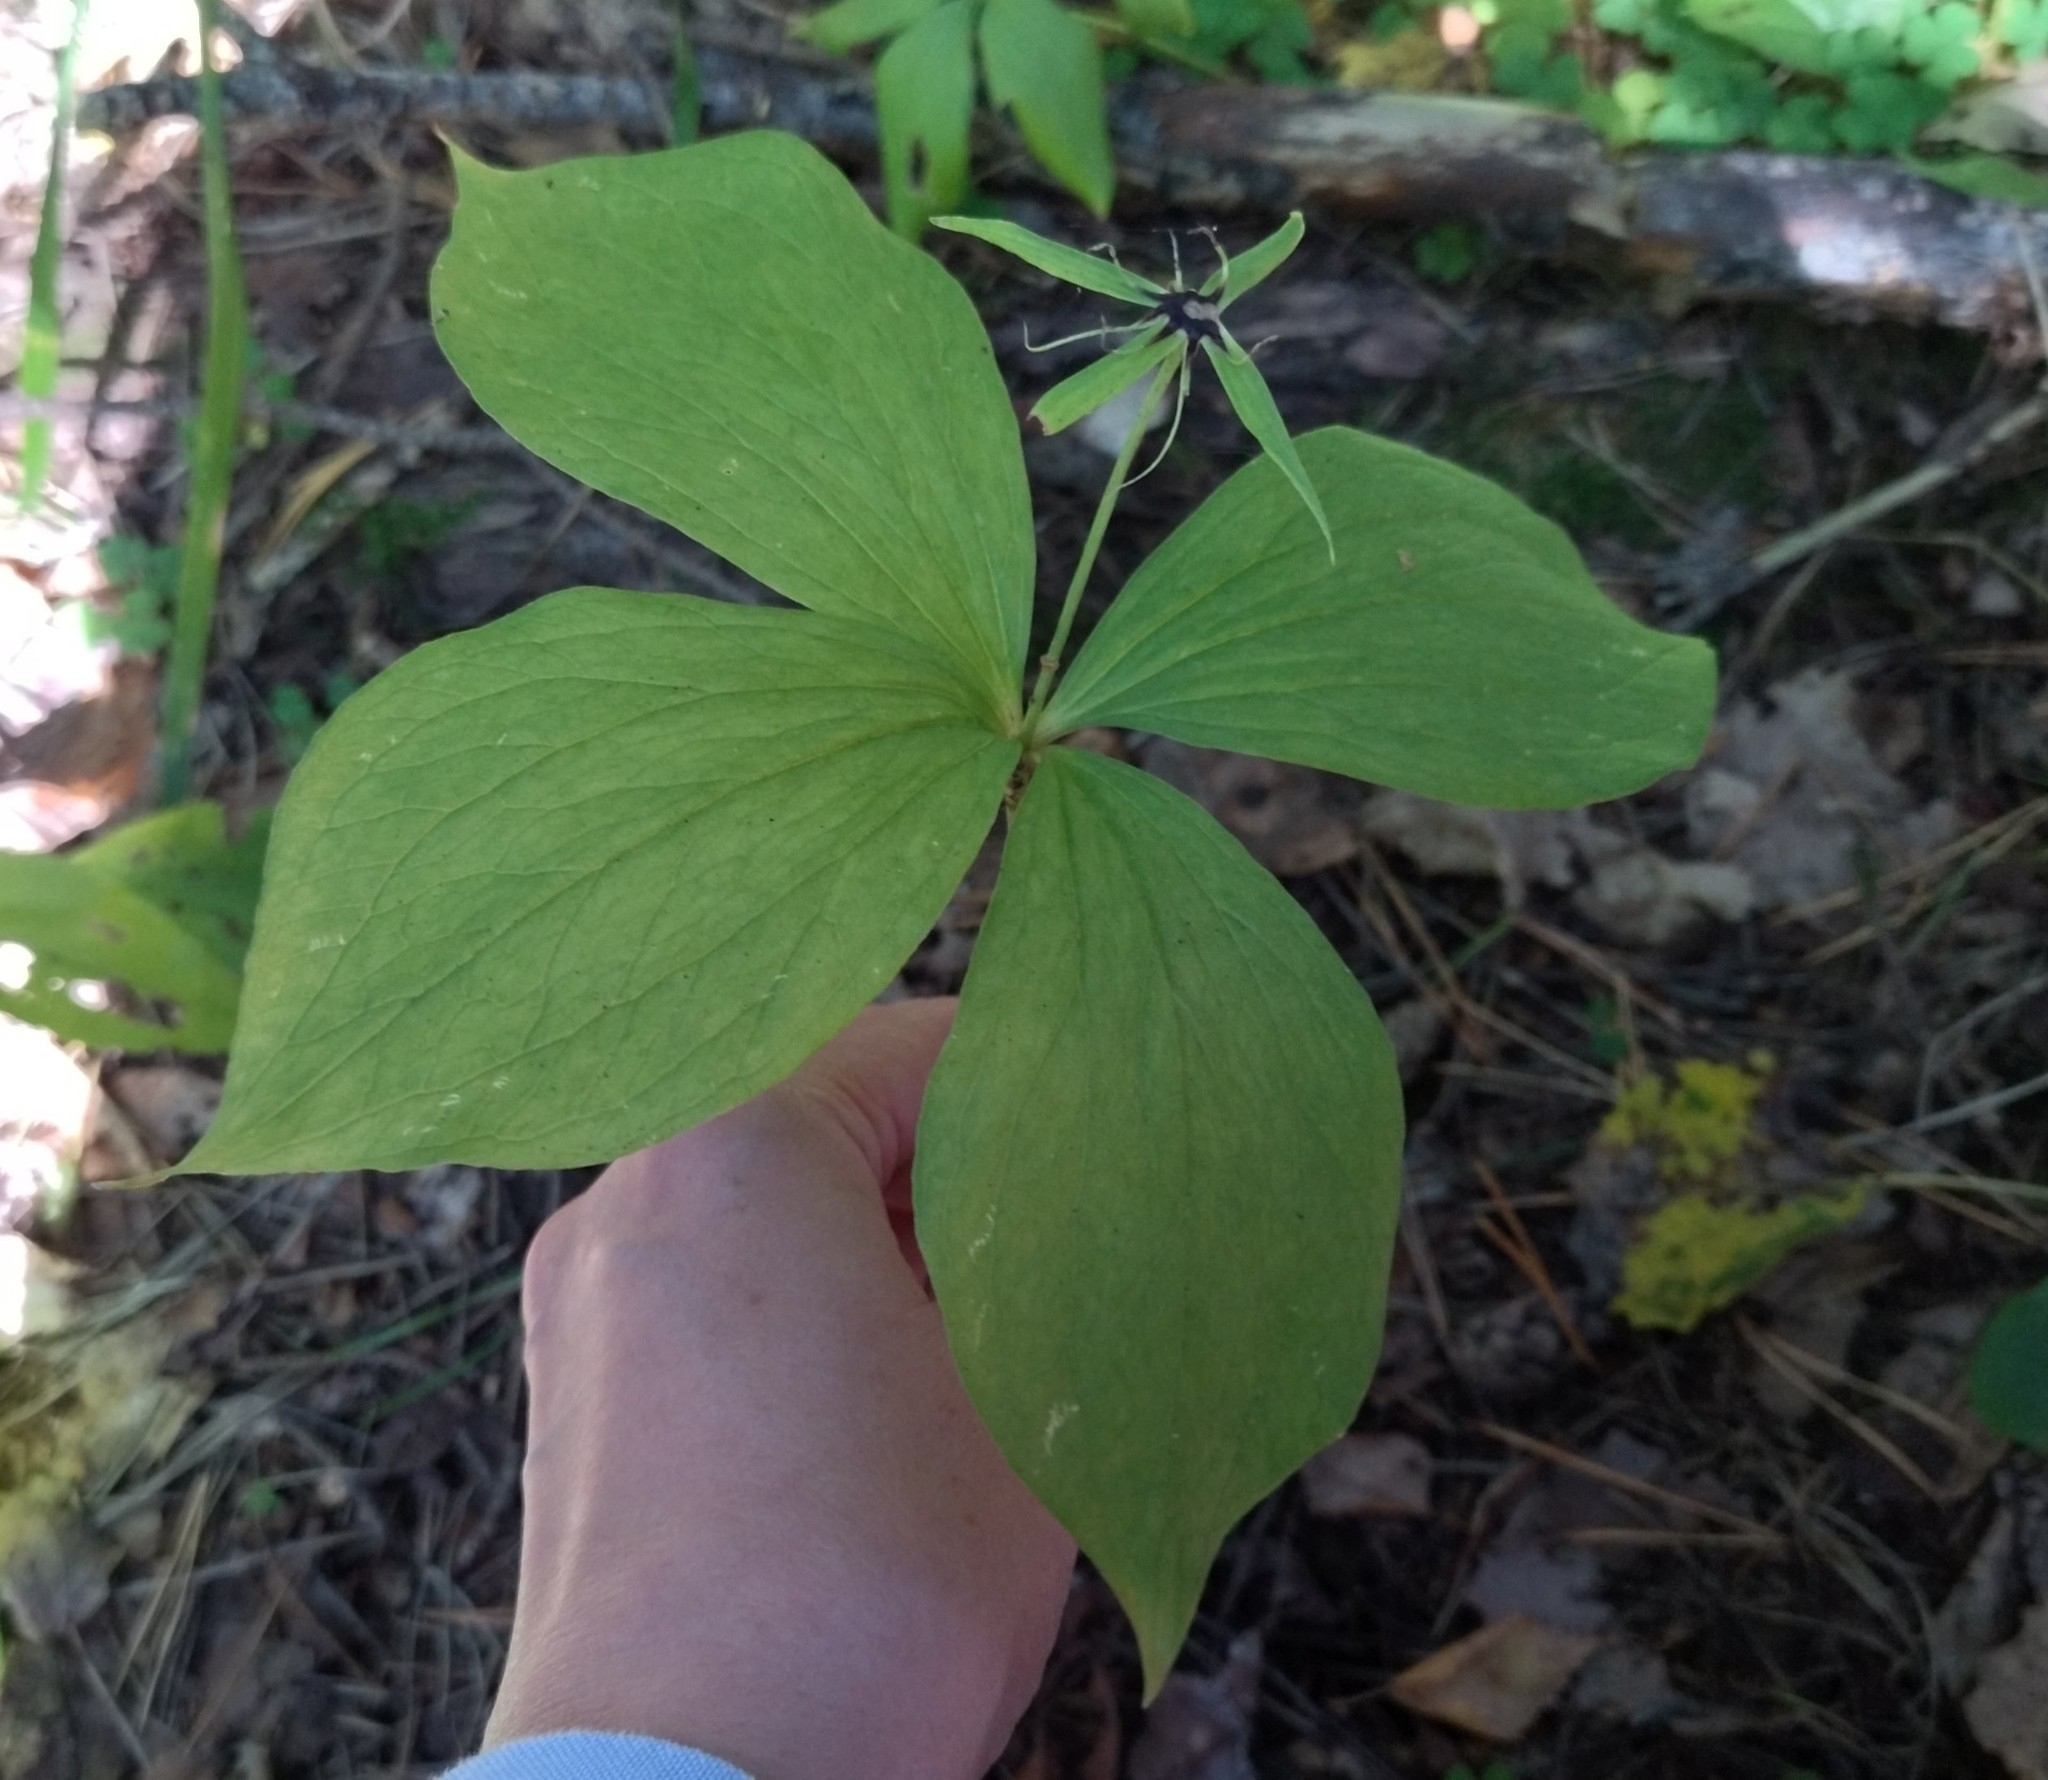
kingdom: Plantae
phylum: Tracheophyta
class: Liliopsida
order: Liliales
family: Melanthiaceae
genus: Paris
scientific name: Paris quadrifolia
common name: Herb-paris
